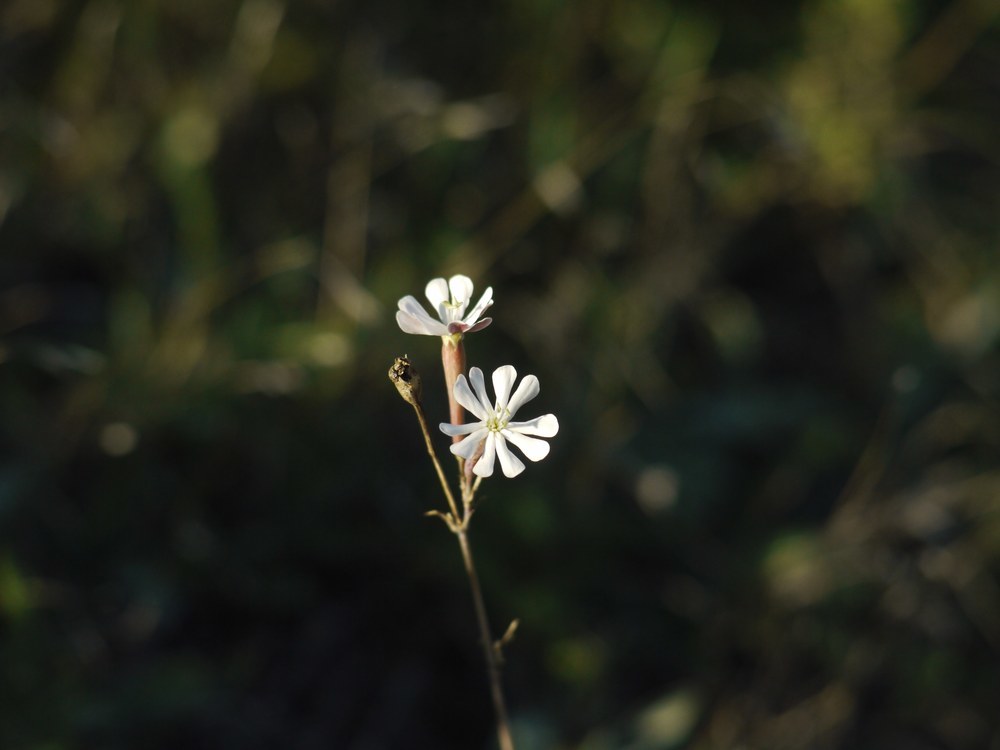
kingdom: Plantae
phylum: Tracheophyta
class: Magnoliopsida
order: Caryophyllales
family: Caryophyllaceae
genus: Silene
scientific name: Silene bupleuroides
